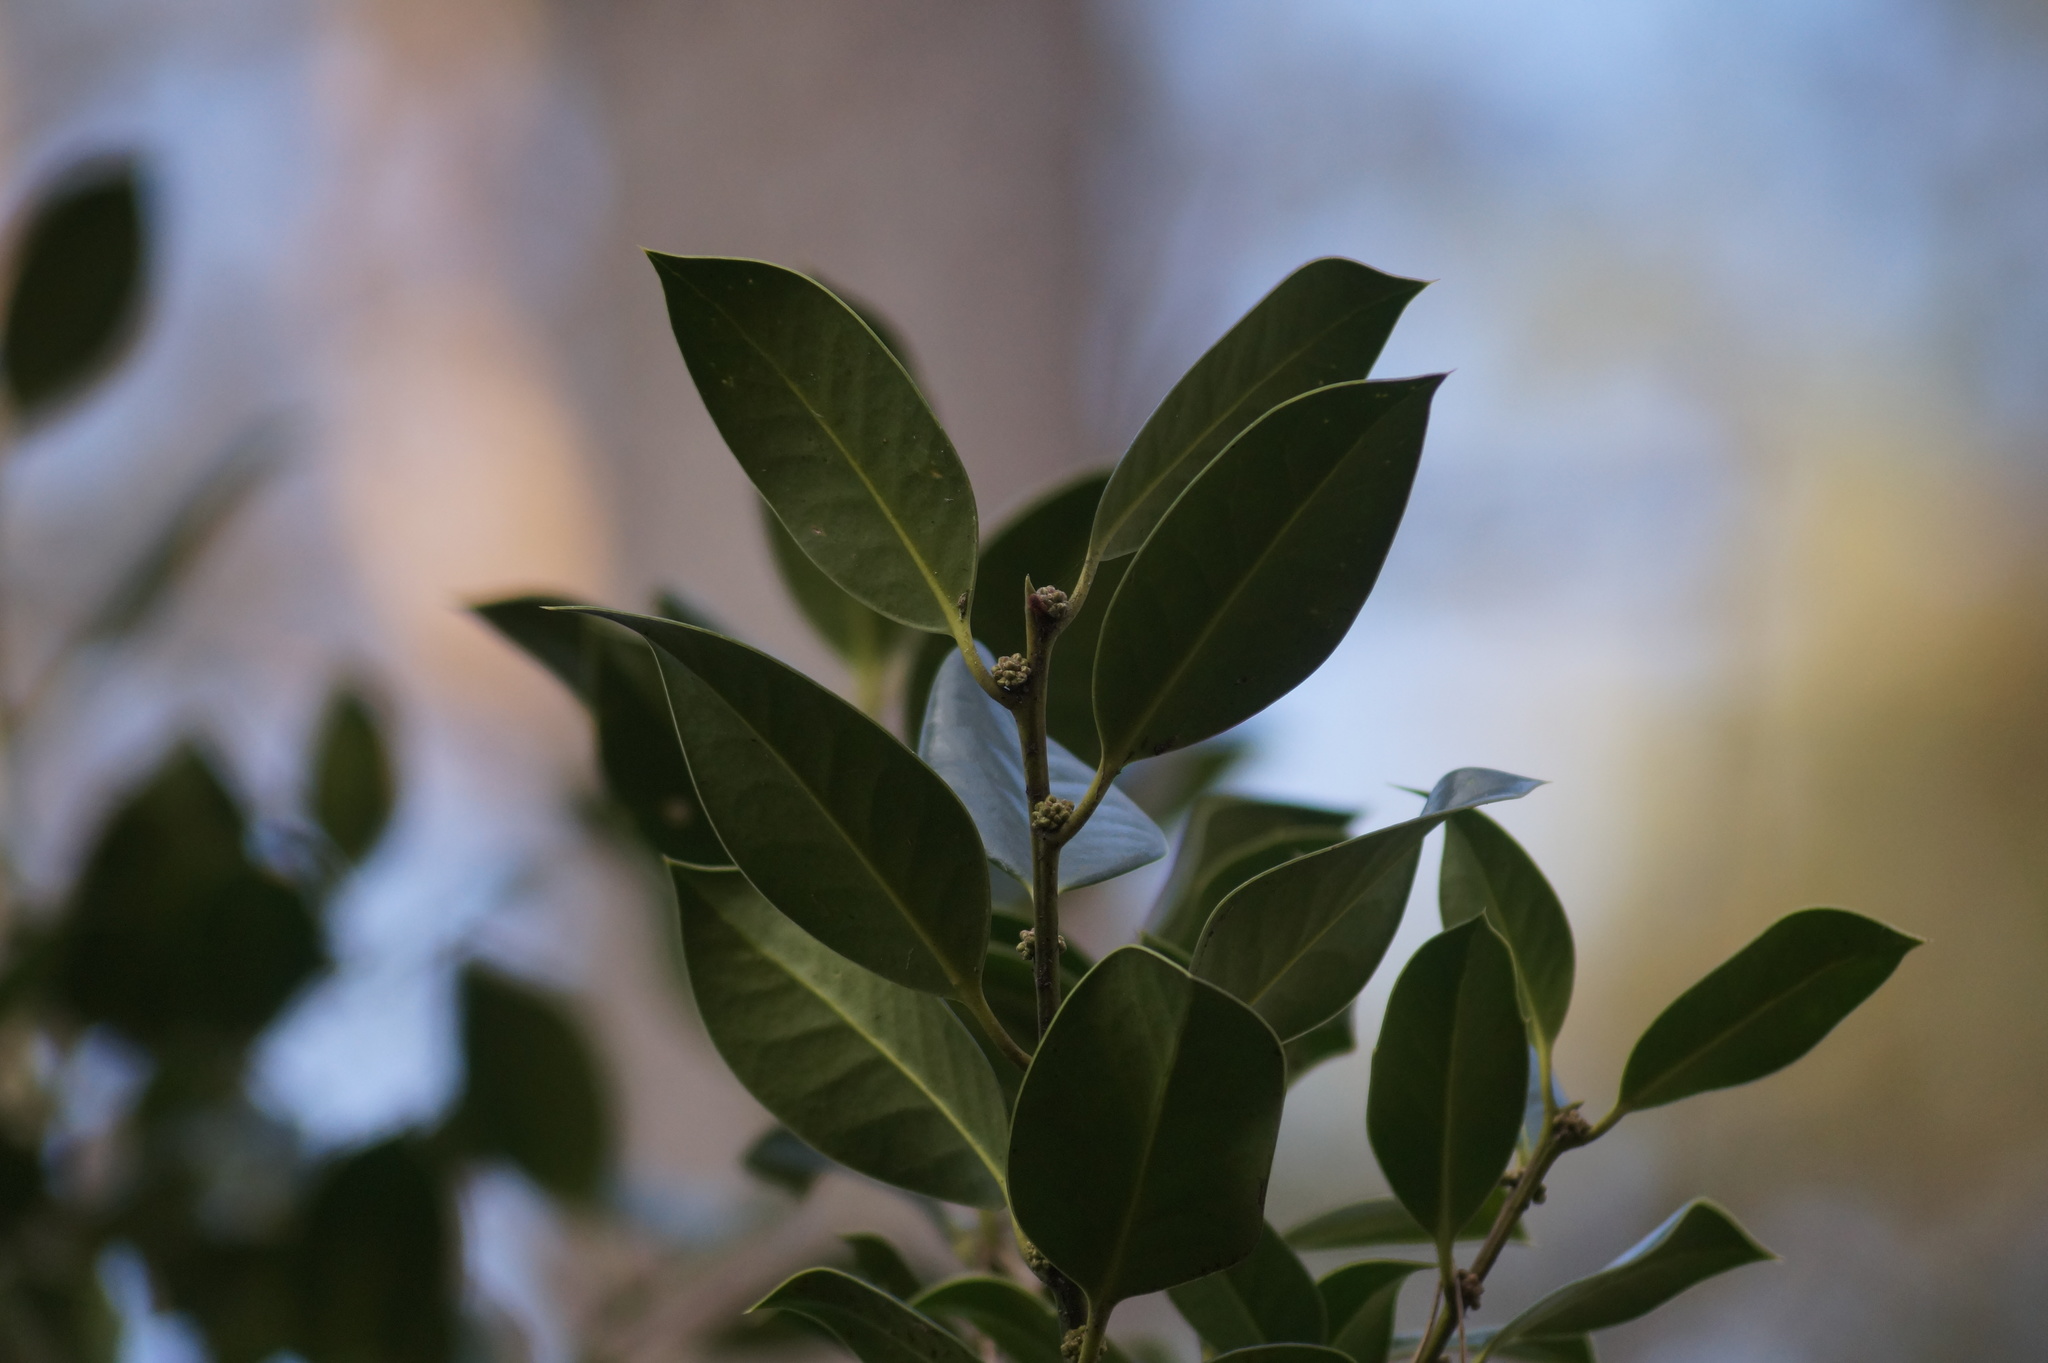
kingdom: Plantae
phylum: Tracheophyta
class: Magnoliopsida
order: Aquifoliales
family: Aquifoliaceae
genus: Ilex
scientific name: Ilex aquifolium
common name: English holly
